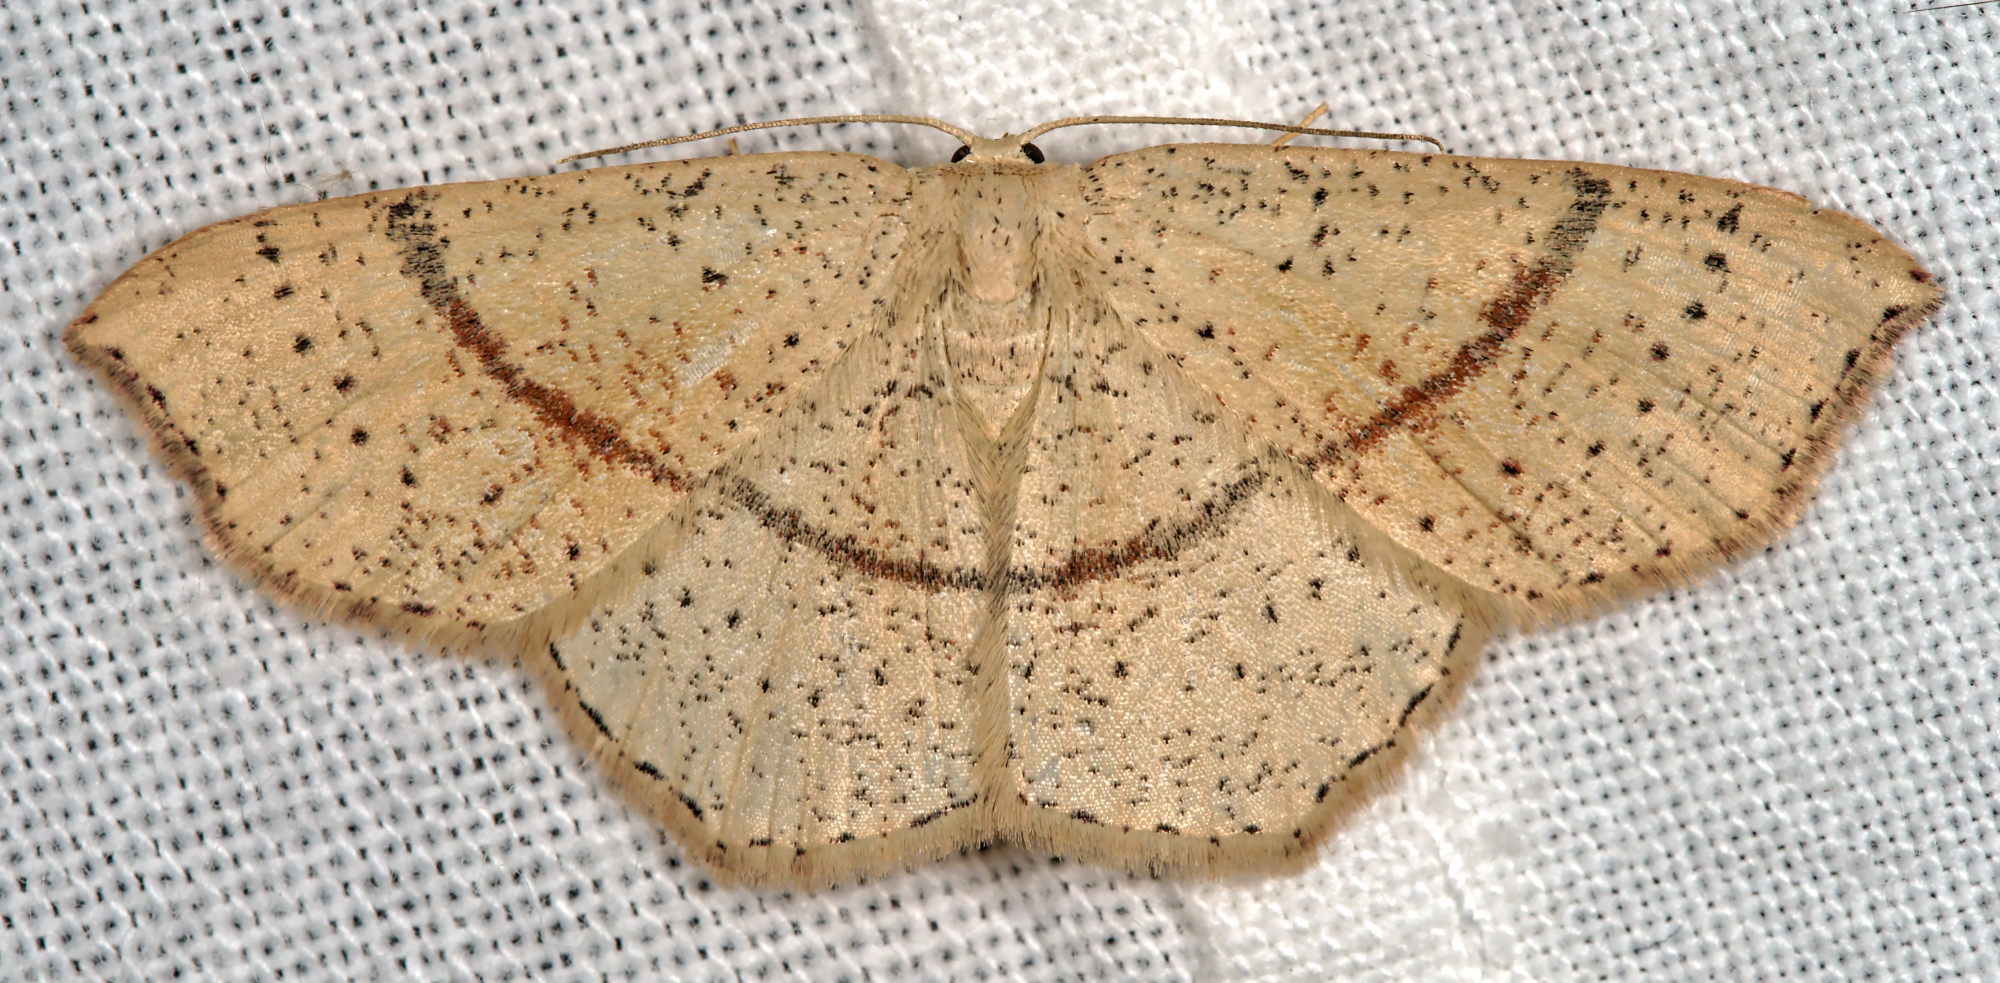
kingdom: Animalia
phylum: Arthropoda
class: Insecta
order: Lepidoptera
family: Geometridae
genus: Cyclophora
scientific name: Cyclophora punctaria
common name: Maiden's blush
